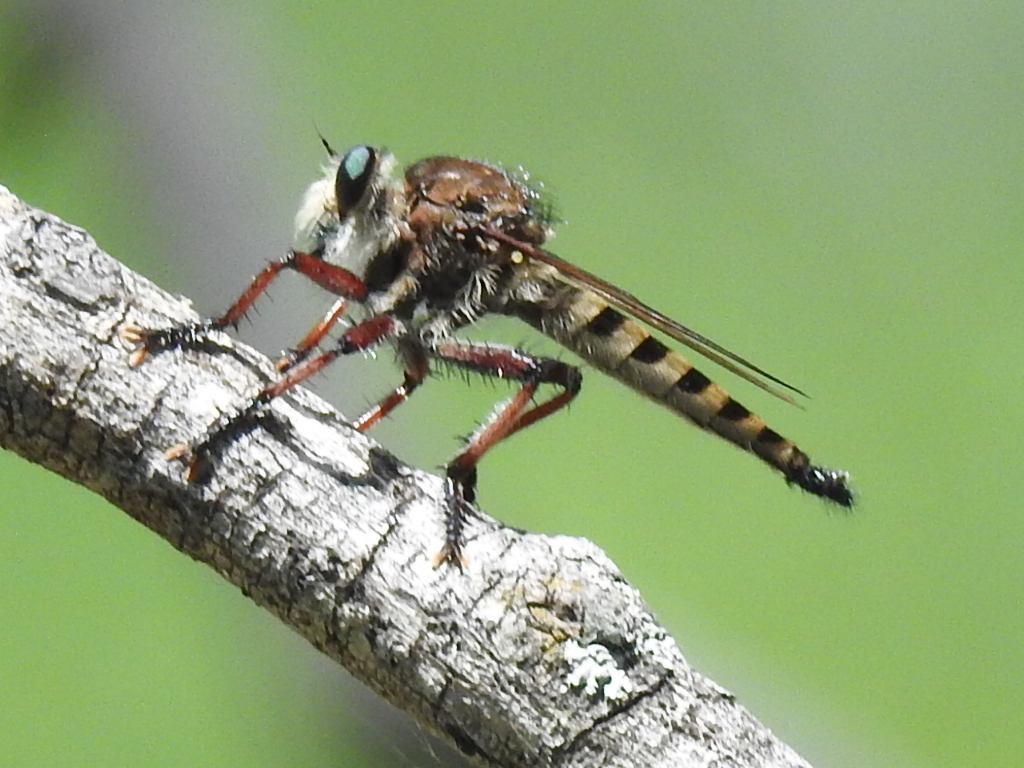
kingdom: Animalia
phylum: Arthropoda
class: Insecta
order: Diptera
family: Asilidae
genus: Promachus
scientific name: Promachus hinei
